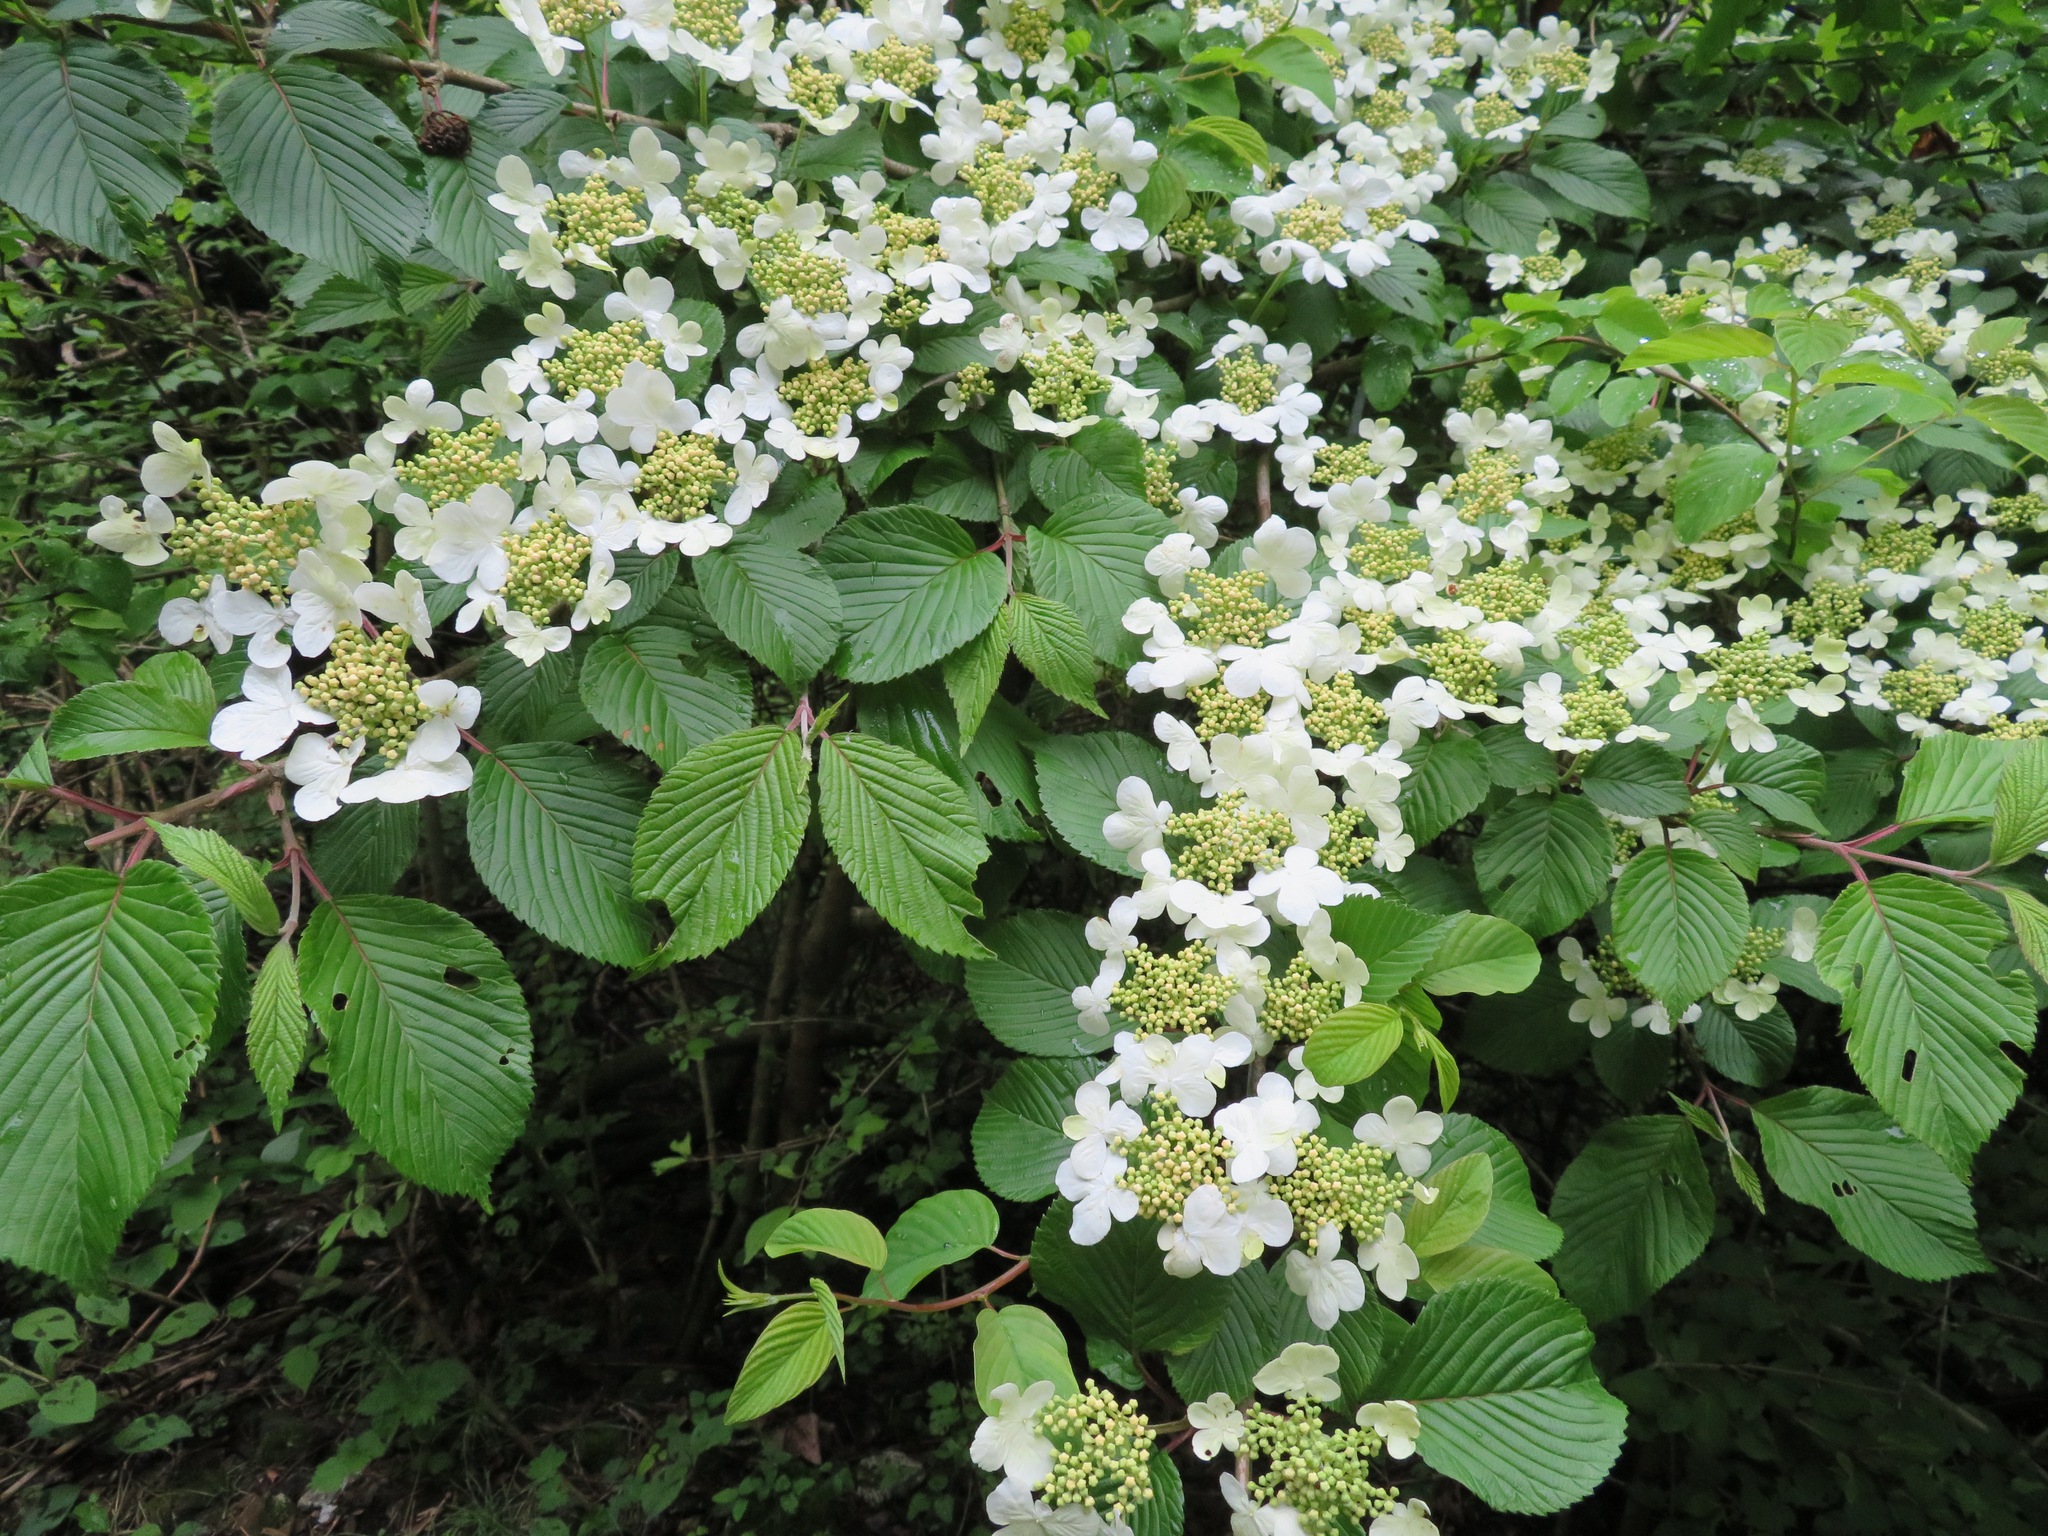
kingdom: Plantae
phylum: Tracheophyta
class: Magnoliopsida
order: Dipsacales
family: Viburnaceae
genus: Viburnum
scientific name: Viburnum plicatum
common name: Japanese snowball
